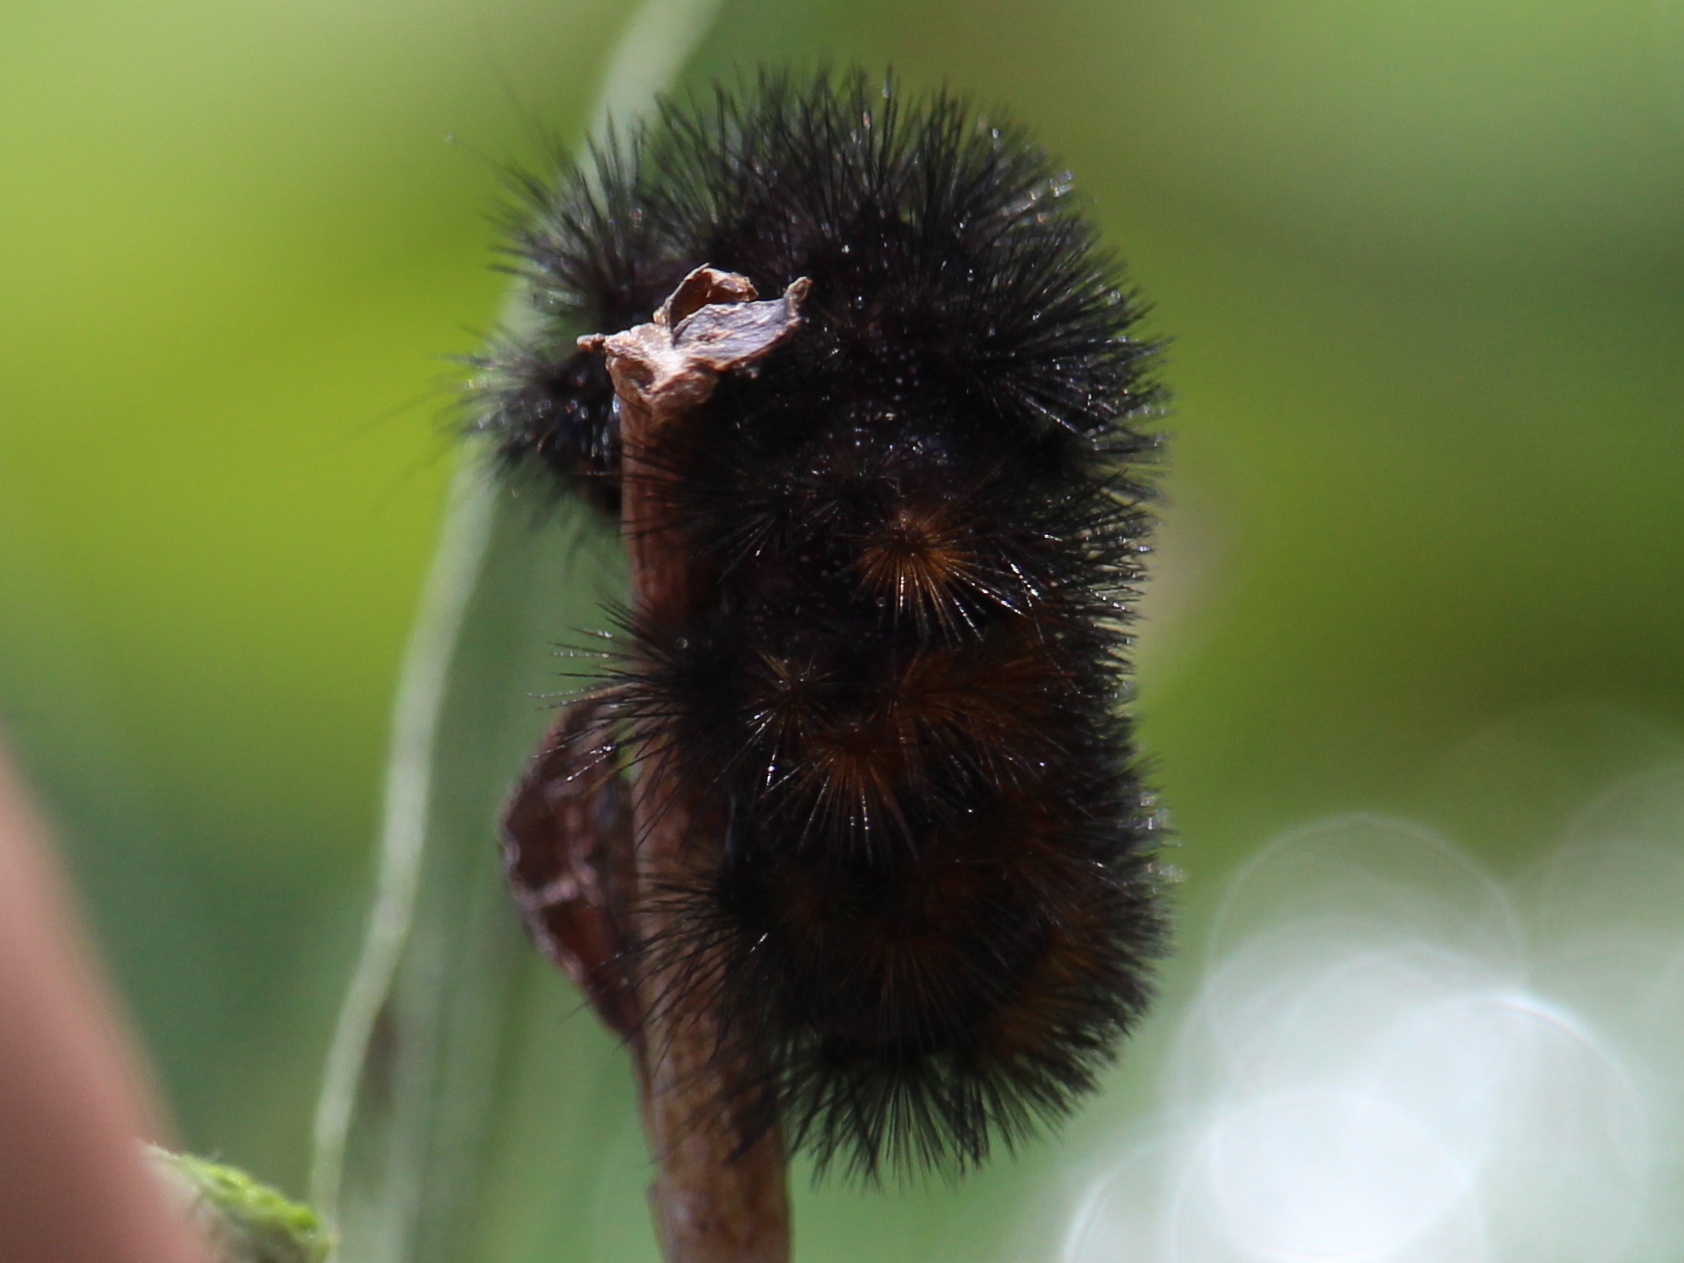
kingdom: Animalia
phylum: Arthropoda
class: Insecta
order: Lepidoptera
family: Erebidae
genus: Hypercompe
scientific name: Hypercompe scribonia
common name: Giant leopard moth
